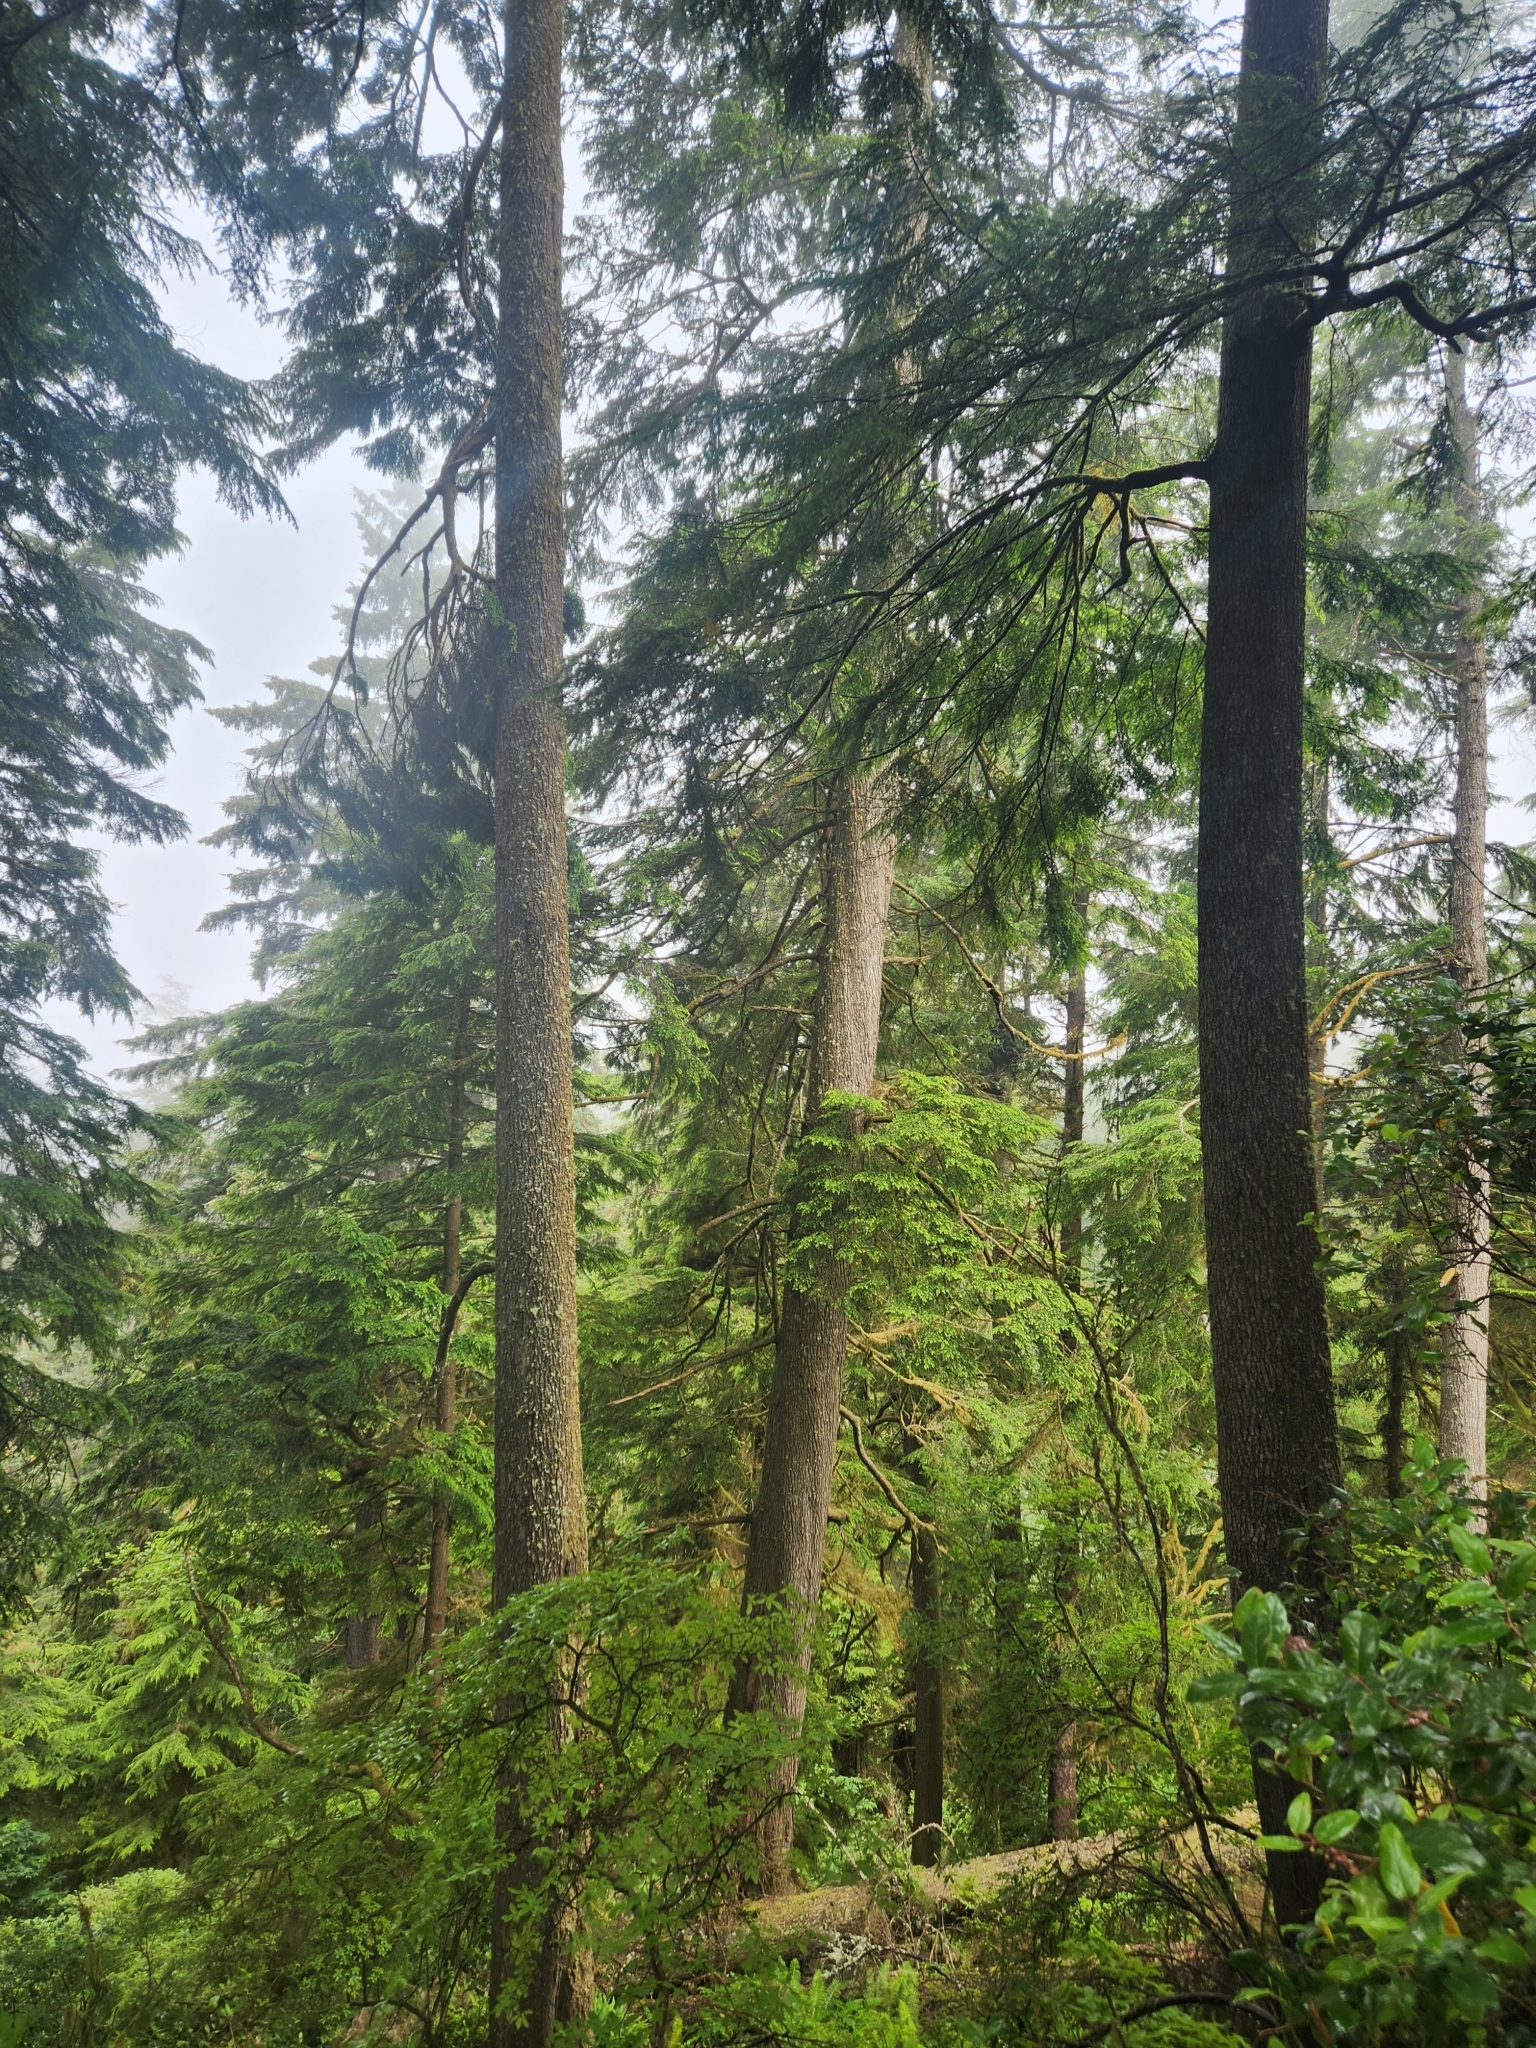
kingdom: Plantae
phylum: Tracheophyta
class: Pinopsida
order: Pinales
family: Pinaceae
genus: Tsuga
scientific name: Tsuga heterophylla
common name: Western hemlock
